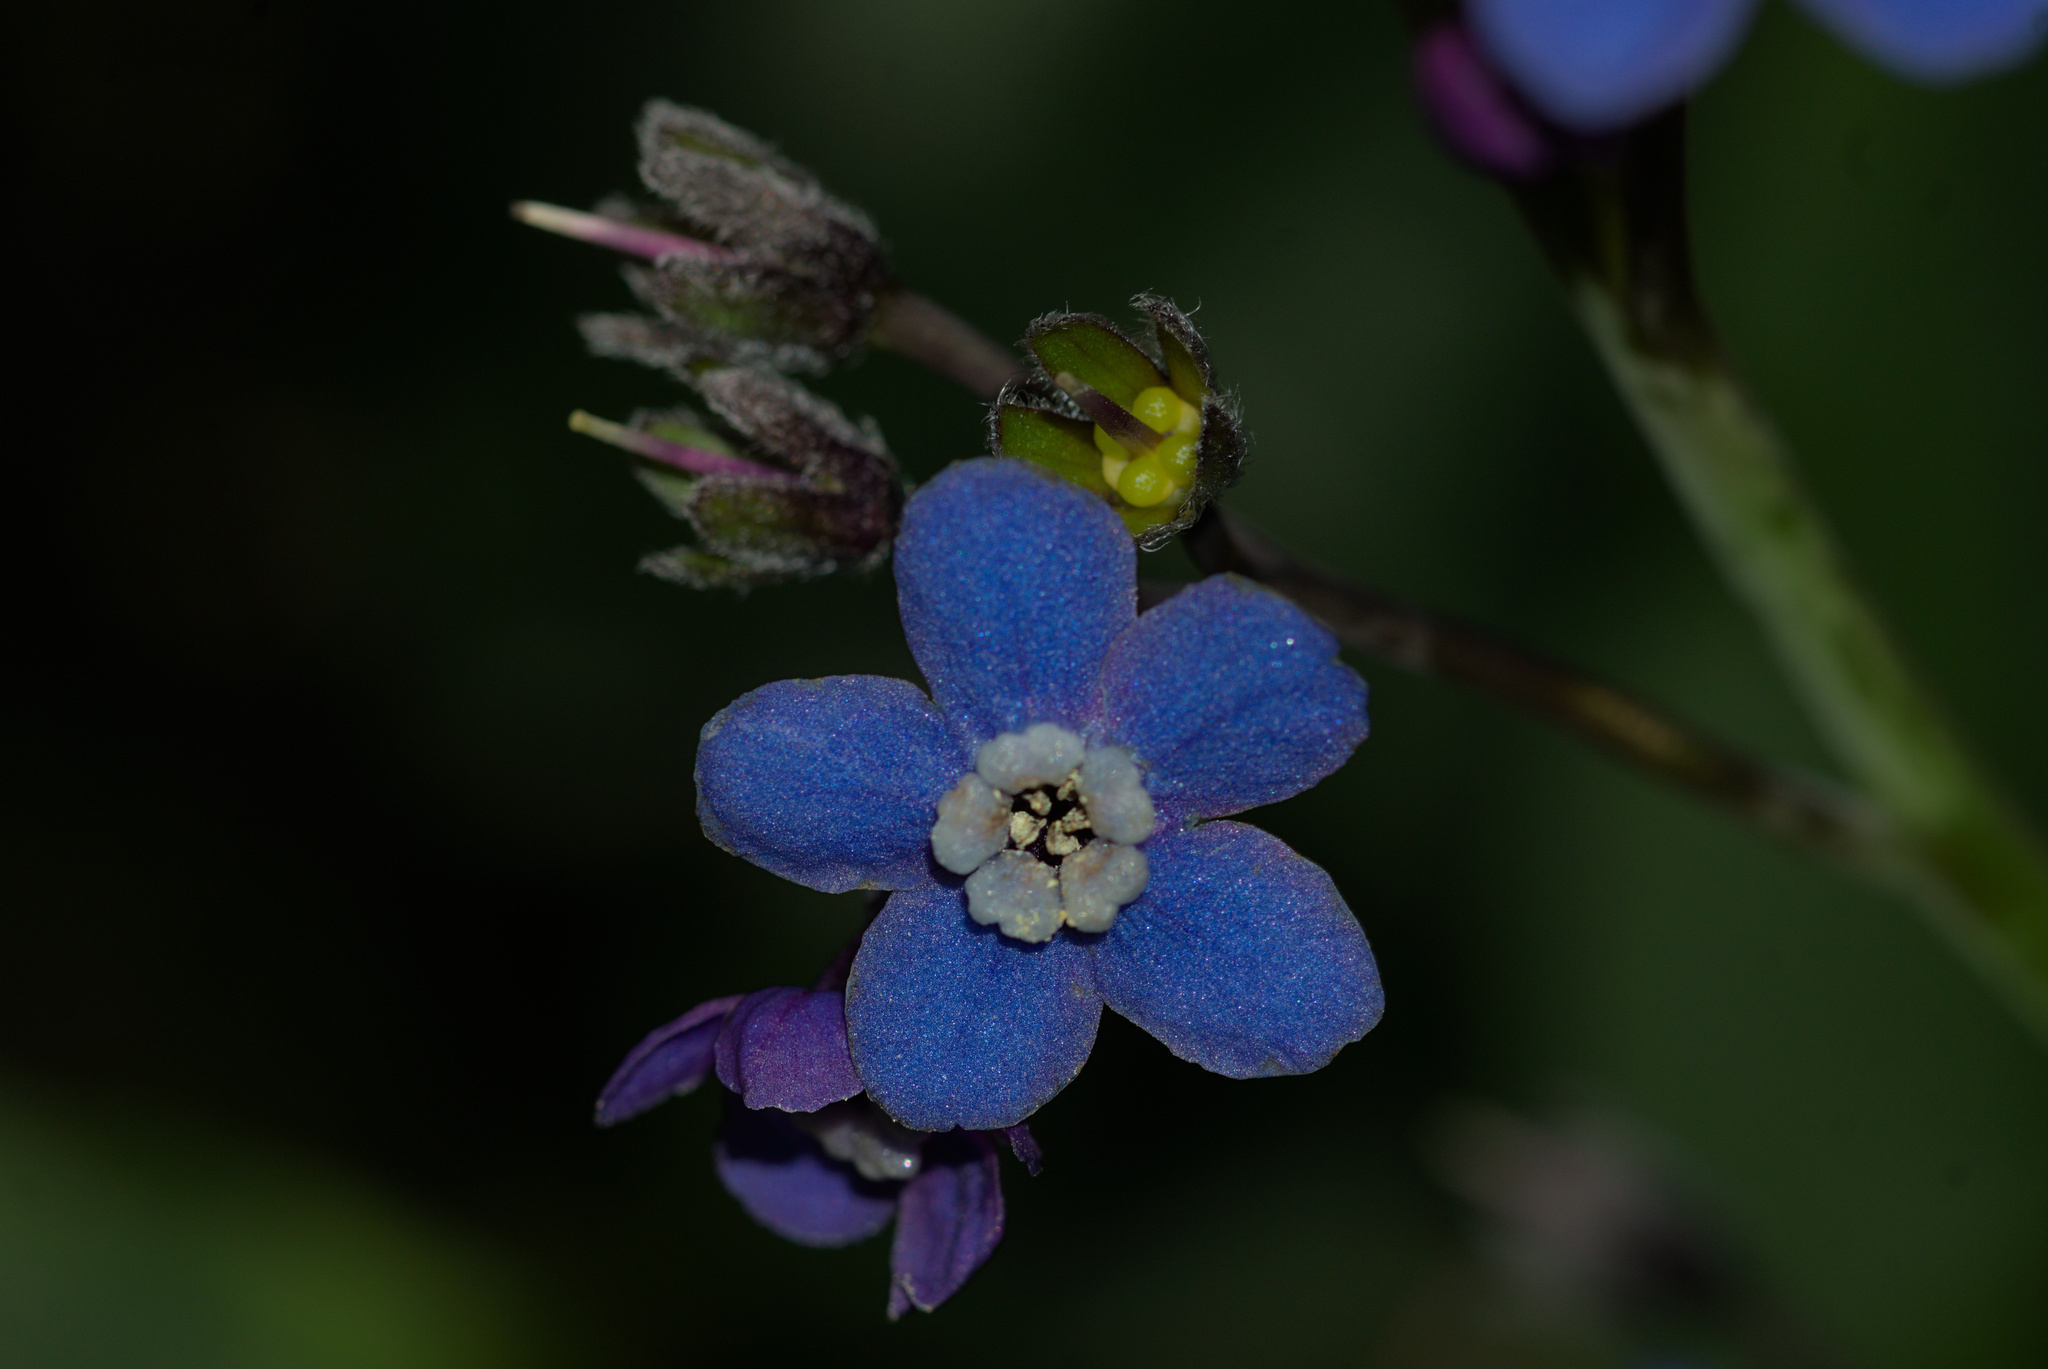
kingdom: Plantae
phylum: Tracheophyta
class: Magnoliopsida
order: Boraginales
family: Boraginaceae
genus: Adelinia
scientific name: Adelinia grande
